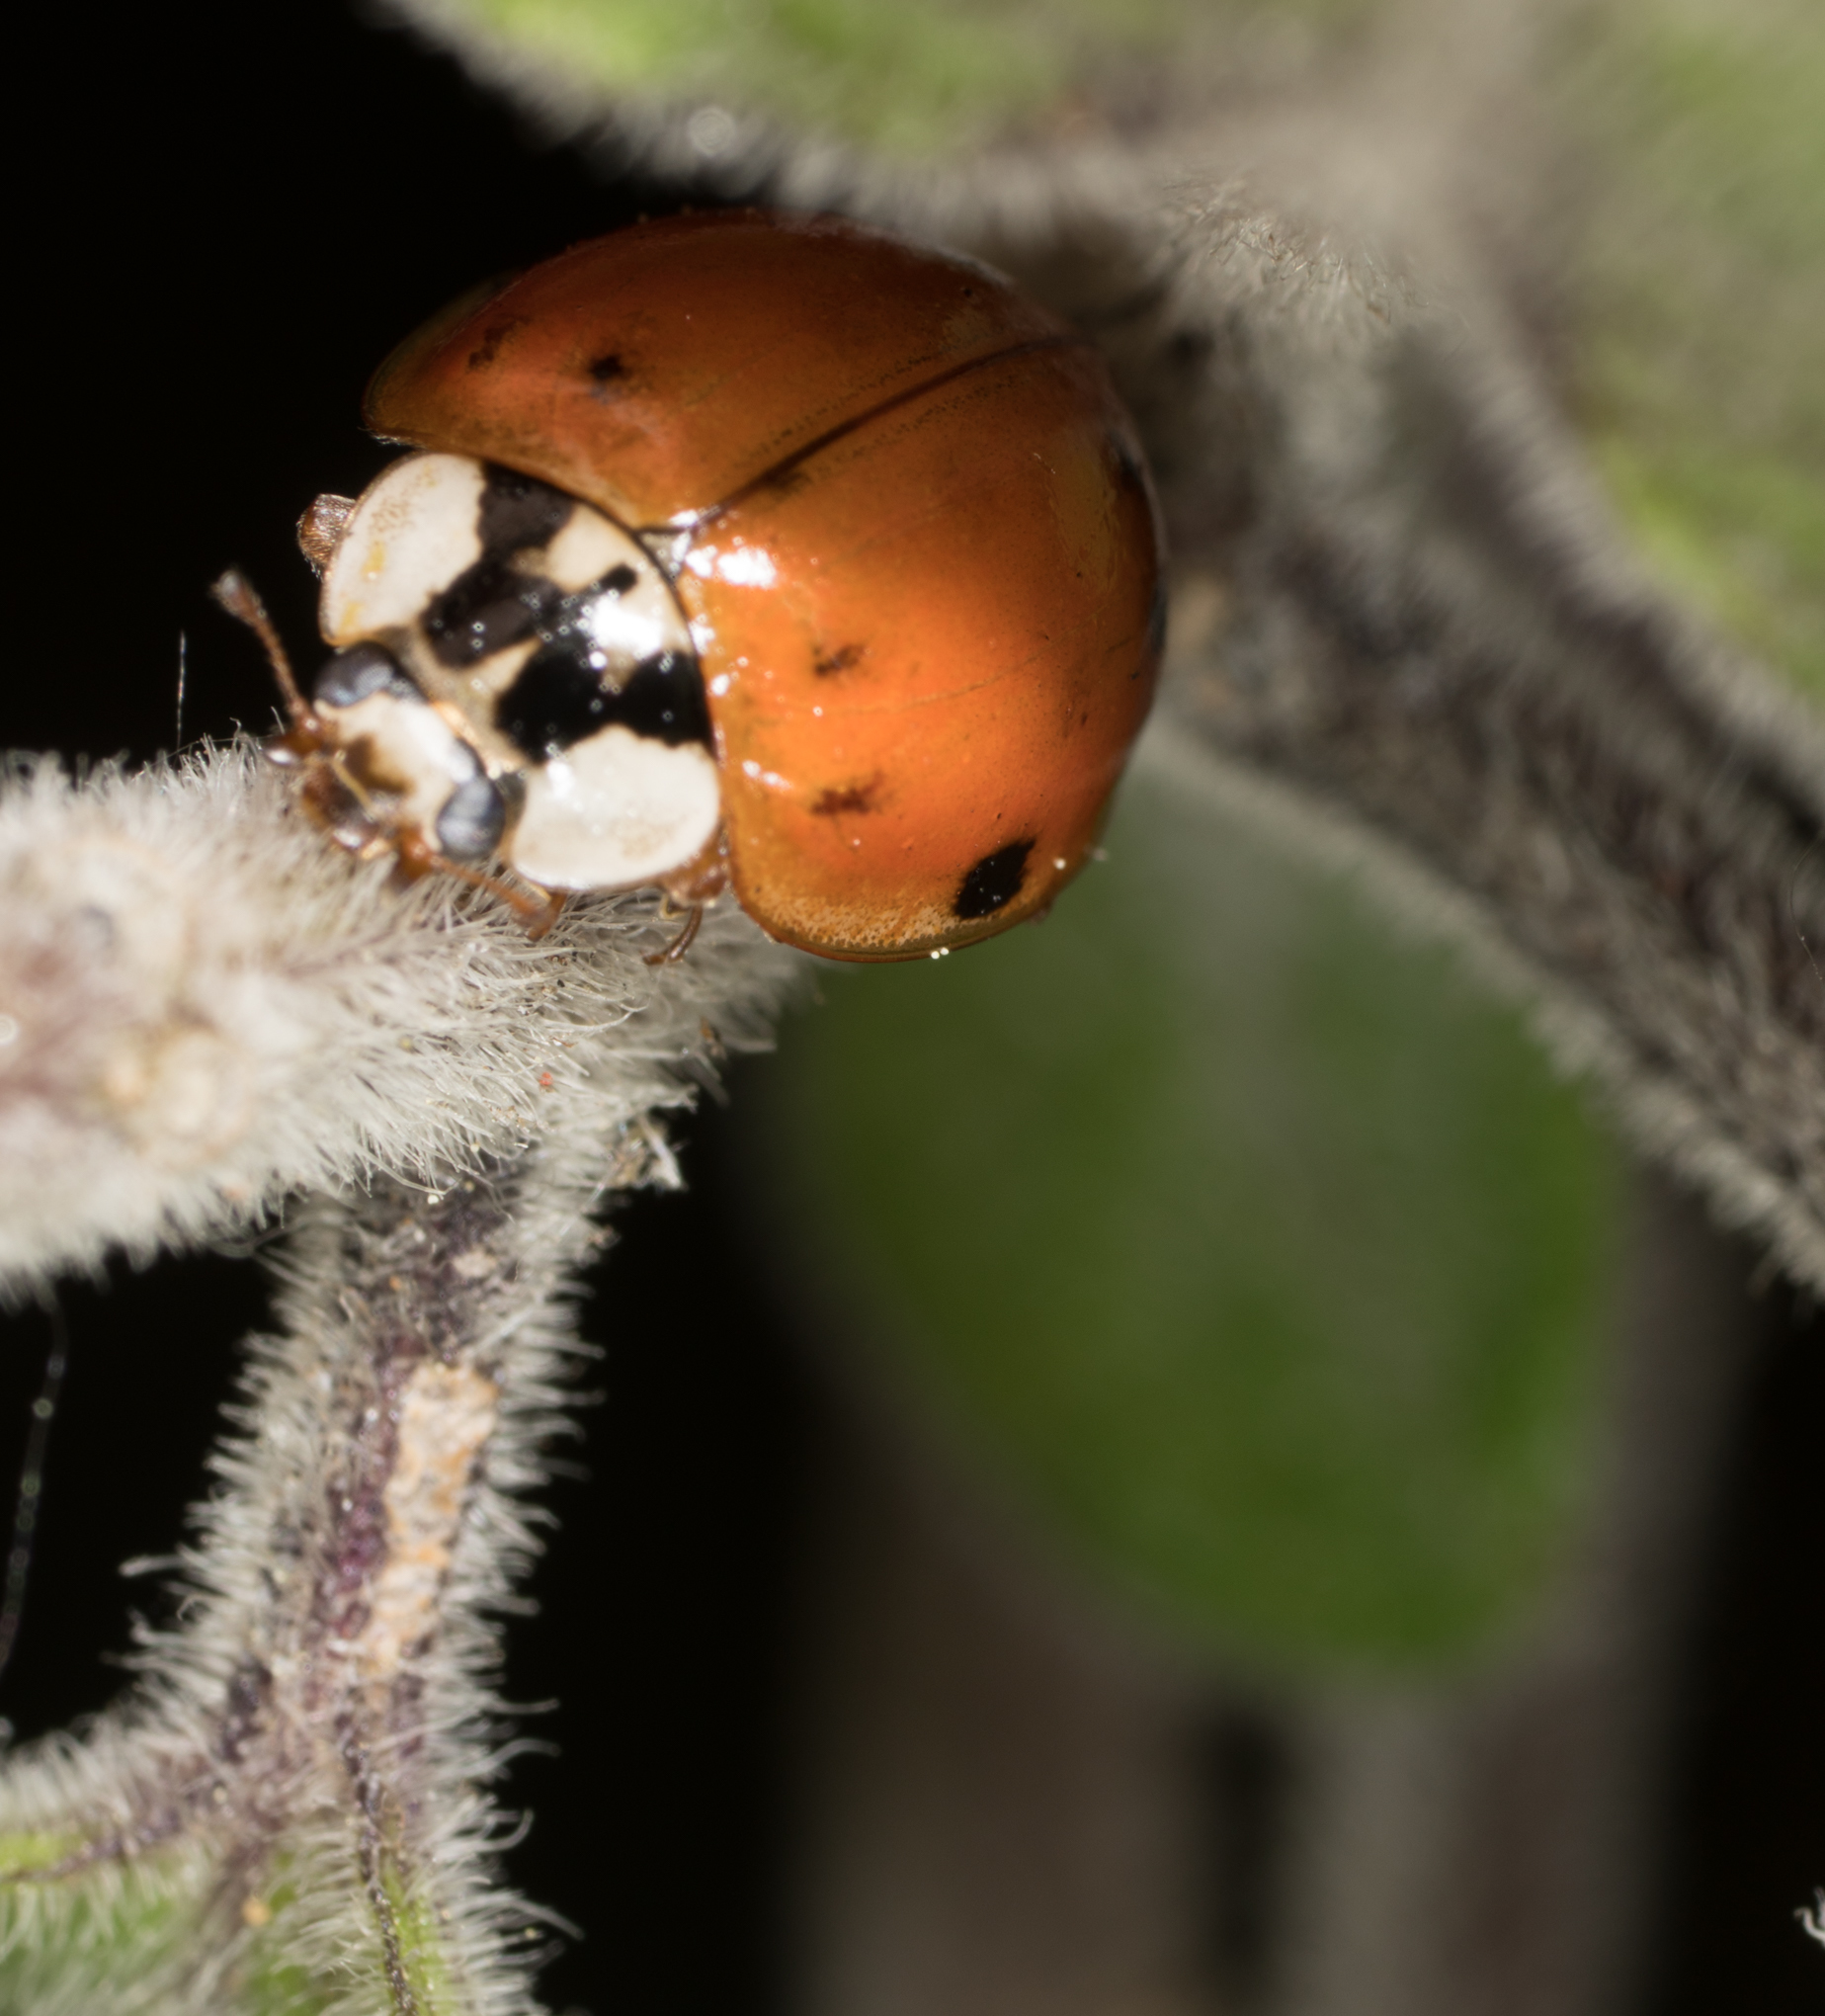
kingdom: Animalia
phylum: Arthropoda
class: Insecta
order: Coleoptera
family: Coccinellidae
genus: Harmonia
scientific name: Harmonia axyridis
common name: Harlequin ladybird
